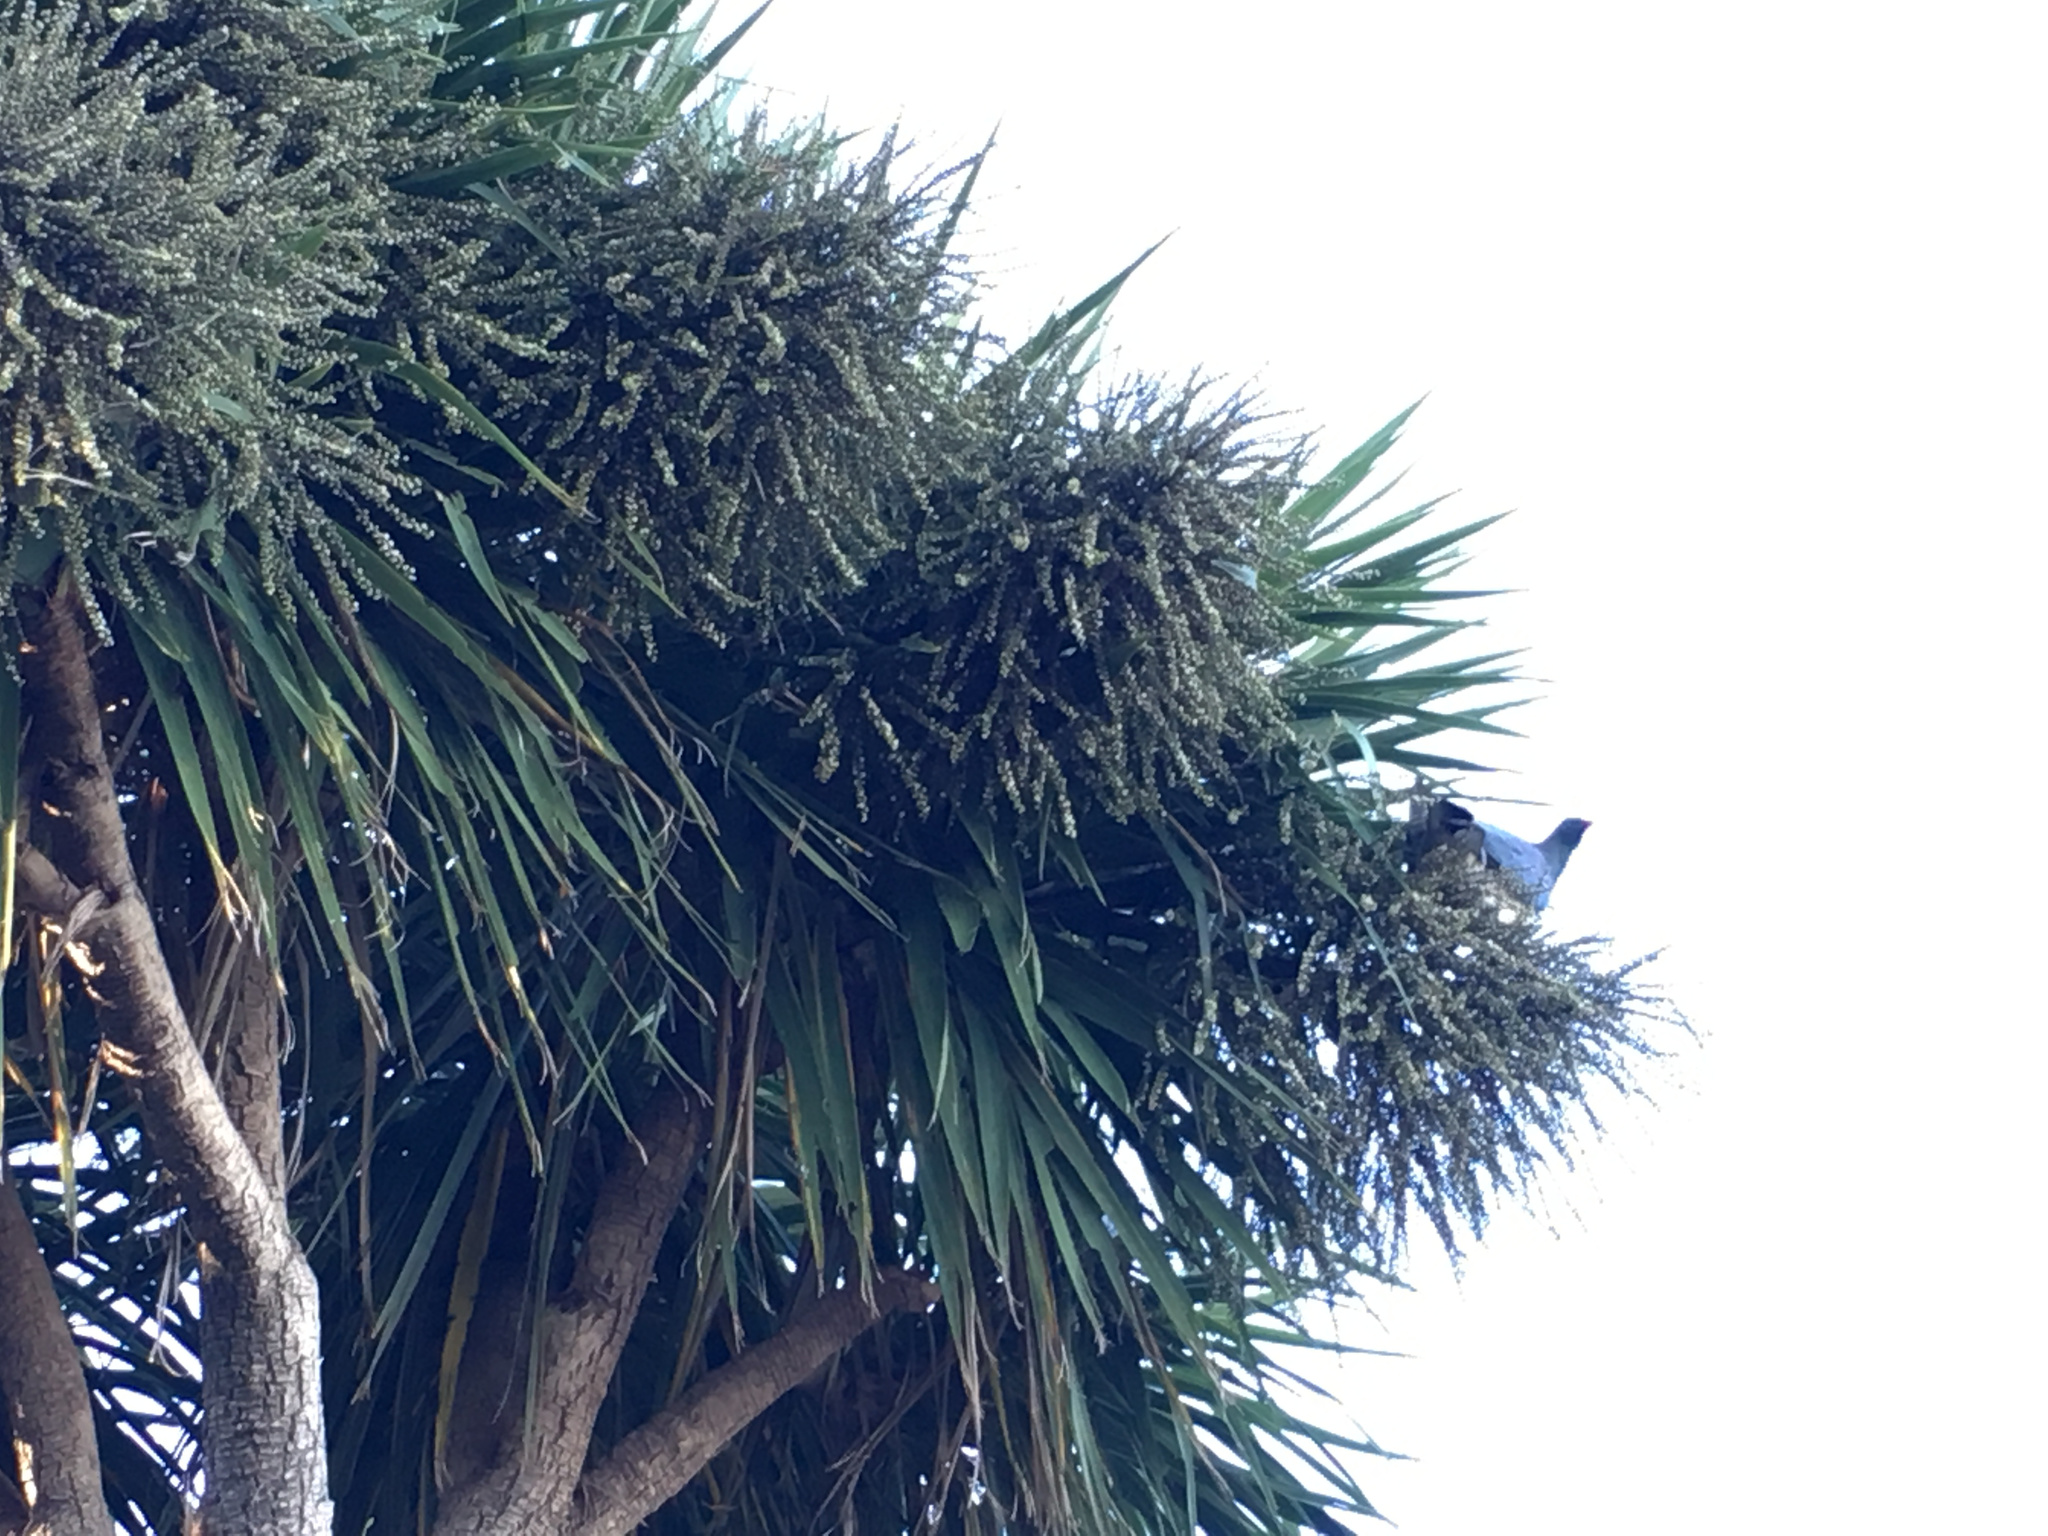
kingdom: Animalia
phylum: Chordata
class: Aves
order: Columbiformes
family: Columbidae
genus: Hemiphaga
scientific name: Hemiphaga novaeseelandiae
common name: New zealand pigeon
